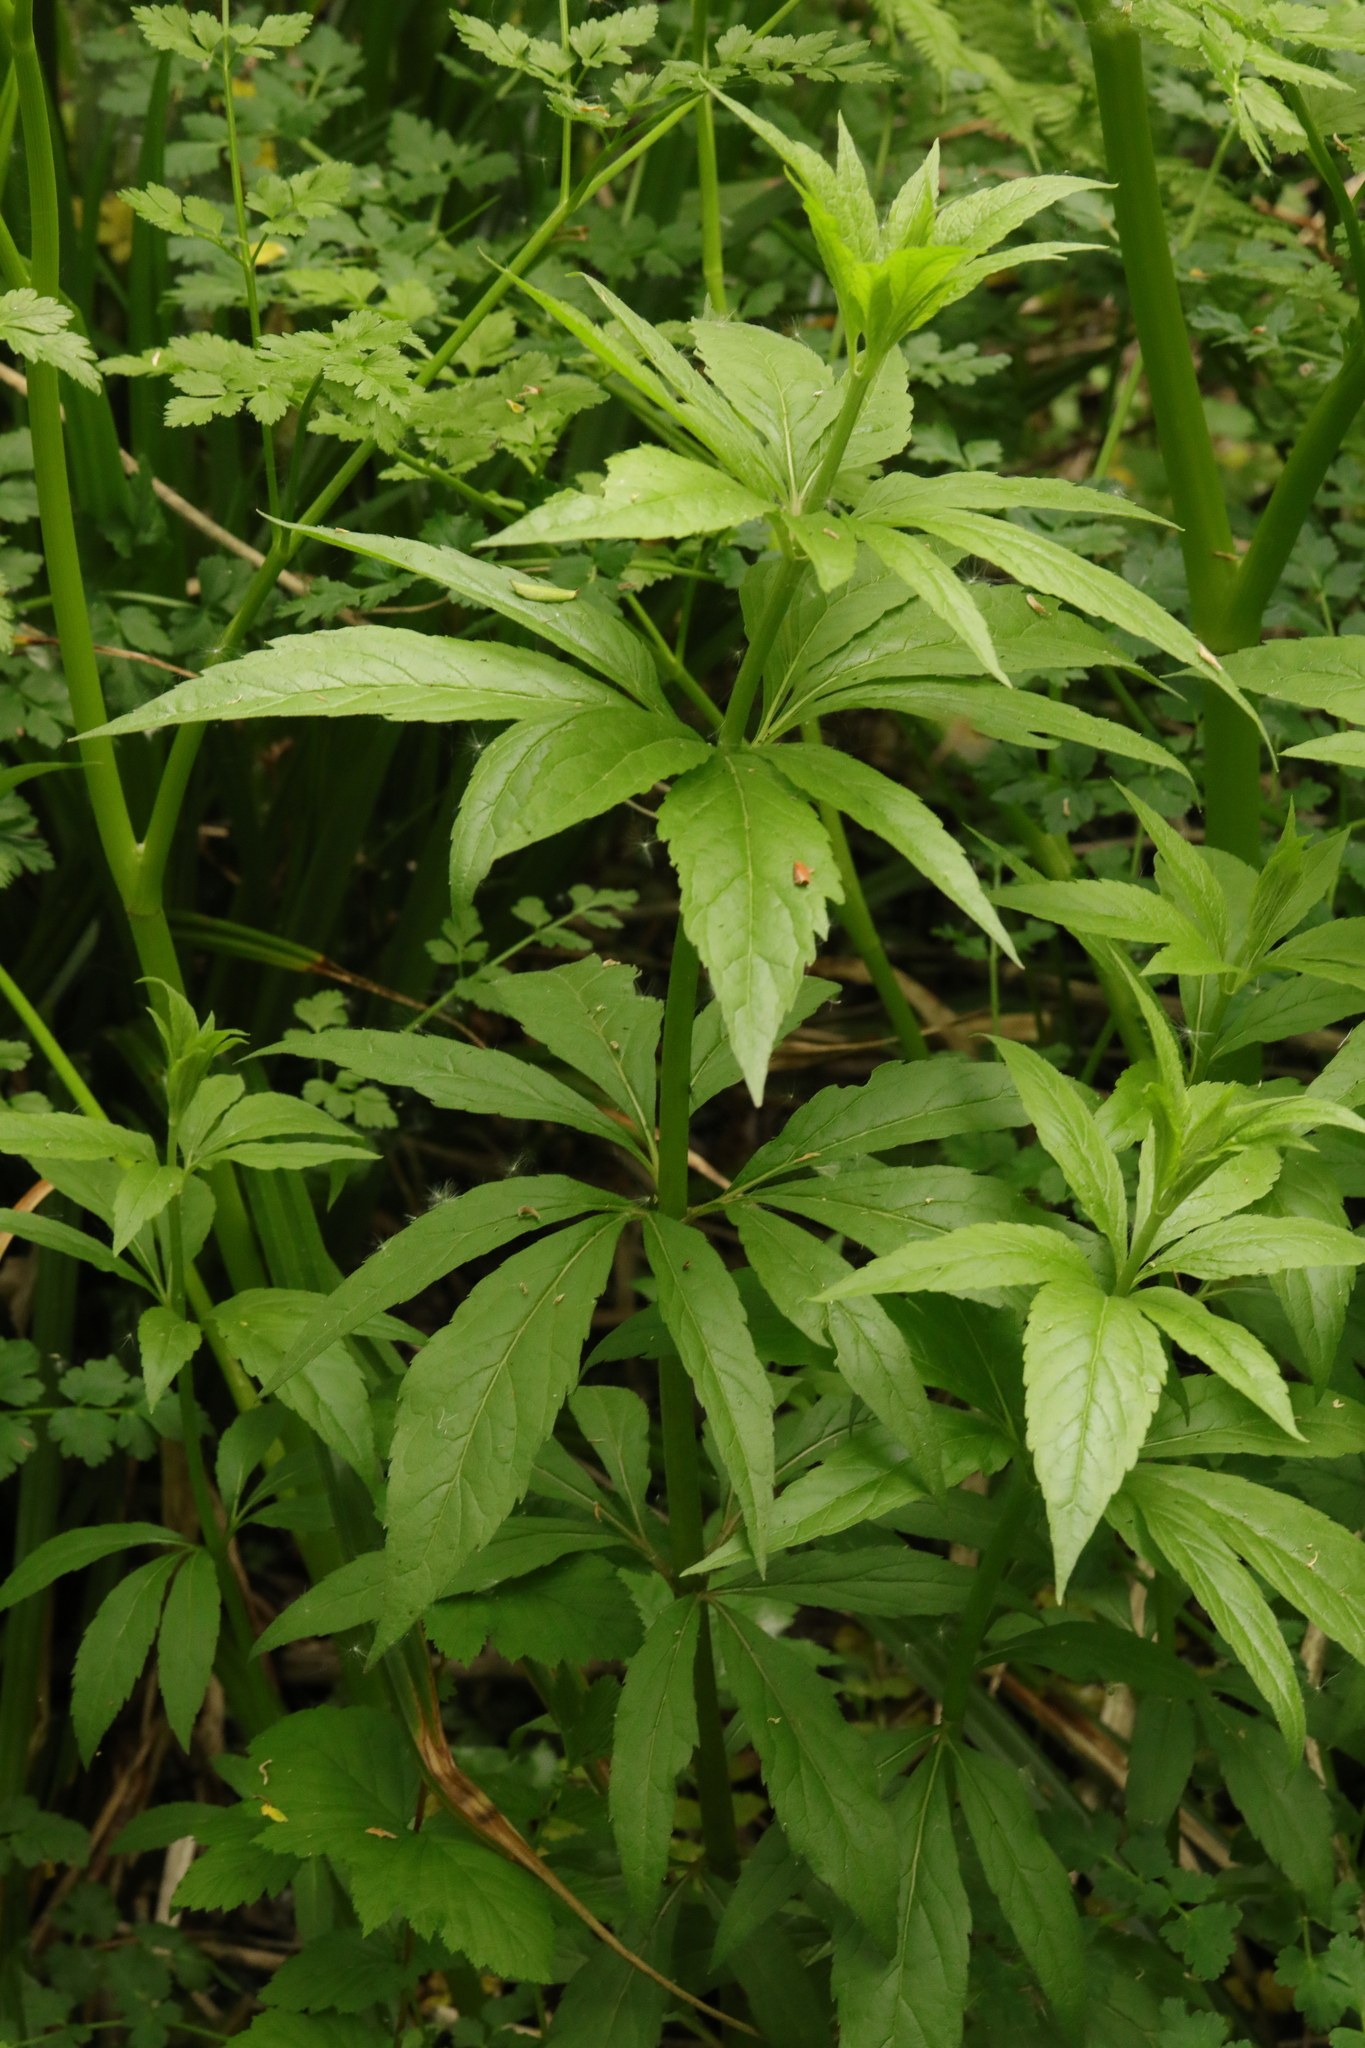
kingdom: Plantae
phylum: Tracheophyta
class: Magnoliopsida
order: Asterales
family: Asteraceae
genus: Eupatorium
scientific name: Eupatorium cannabinum
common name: Hemp-agrimony
